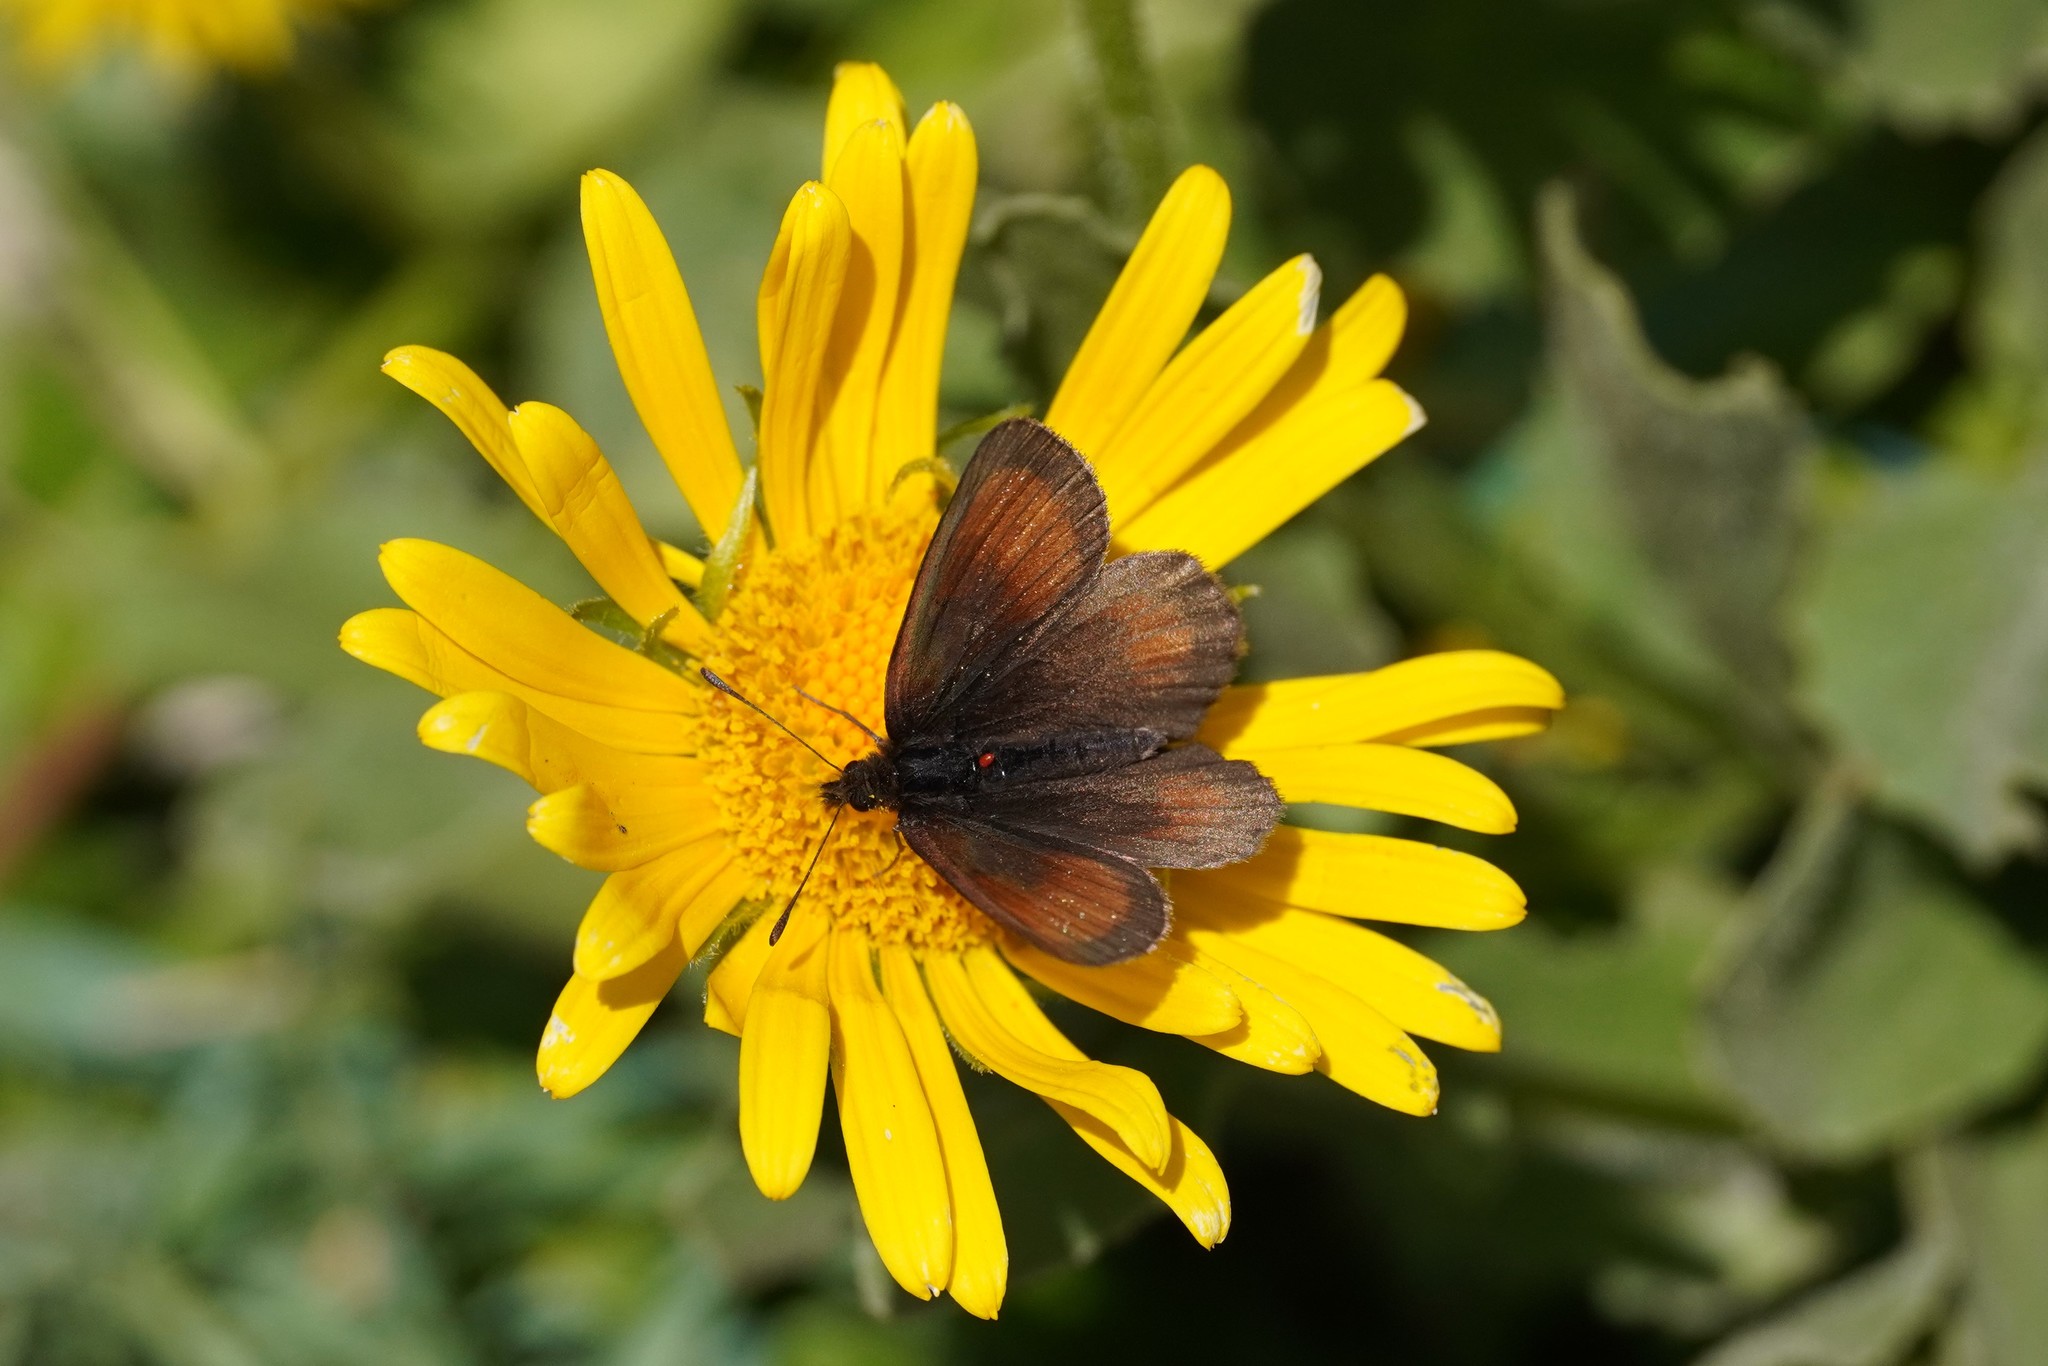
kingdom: Animalia
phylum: Arthropoda
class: Insecta
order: Lepidoptera
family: Nymphalidae
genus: Erebia
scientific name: Erebia gorge
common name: Silky ringlet
